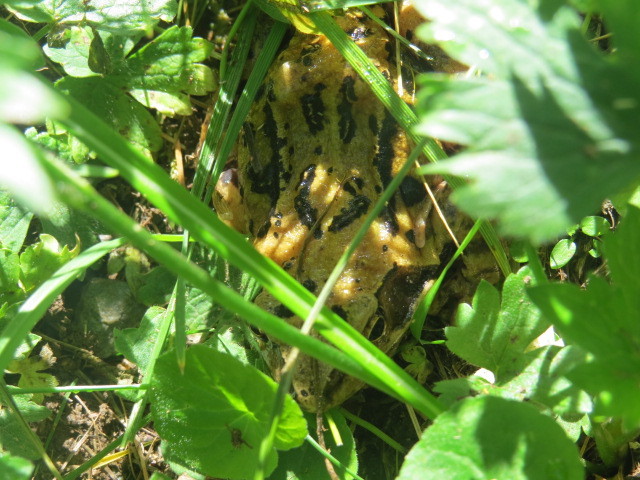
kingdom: Animalia
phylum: Chordata
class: Amphibia
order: Anura
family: Ranidae
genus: Rana
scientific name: Rana temporaria
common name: Common frog
